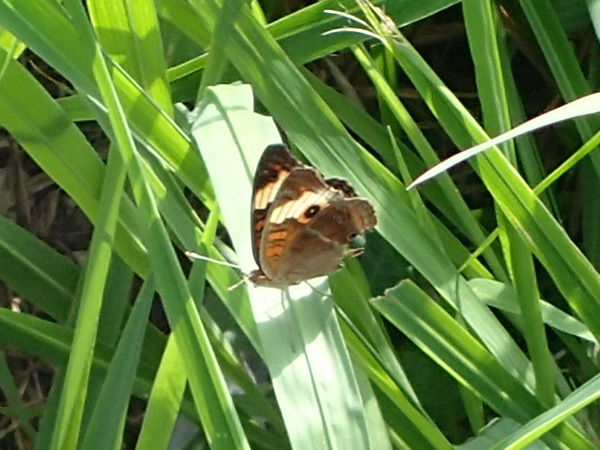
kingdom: Animalia
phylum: Arthropoda
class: Insecta
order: Lepidoptera
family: Nymphalidae
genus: Junonia
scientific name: Junonia lavinia
